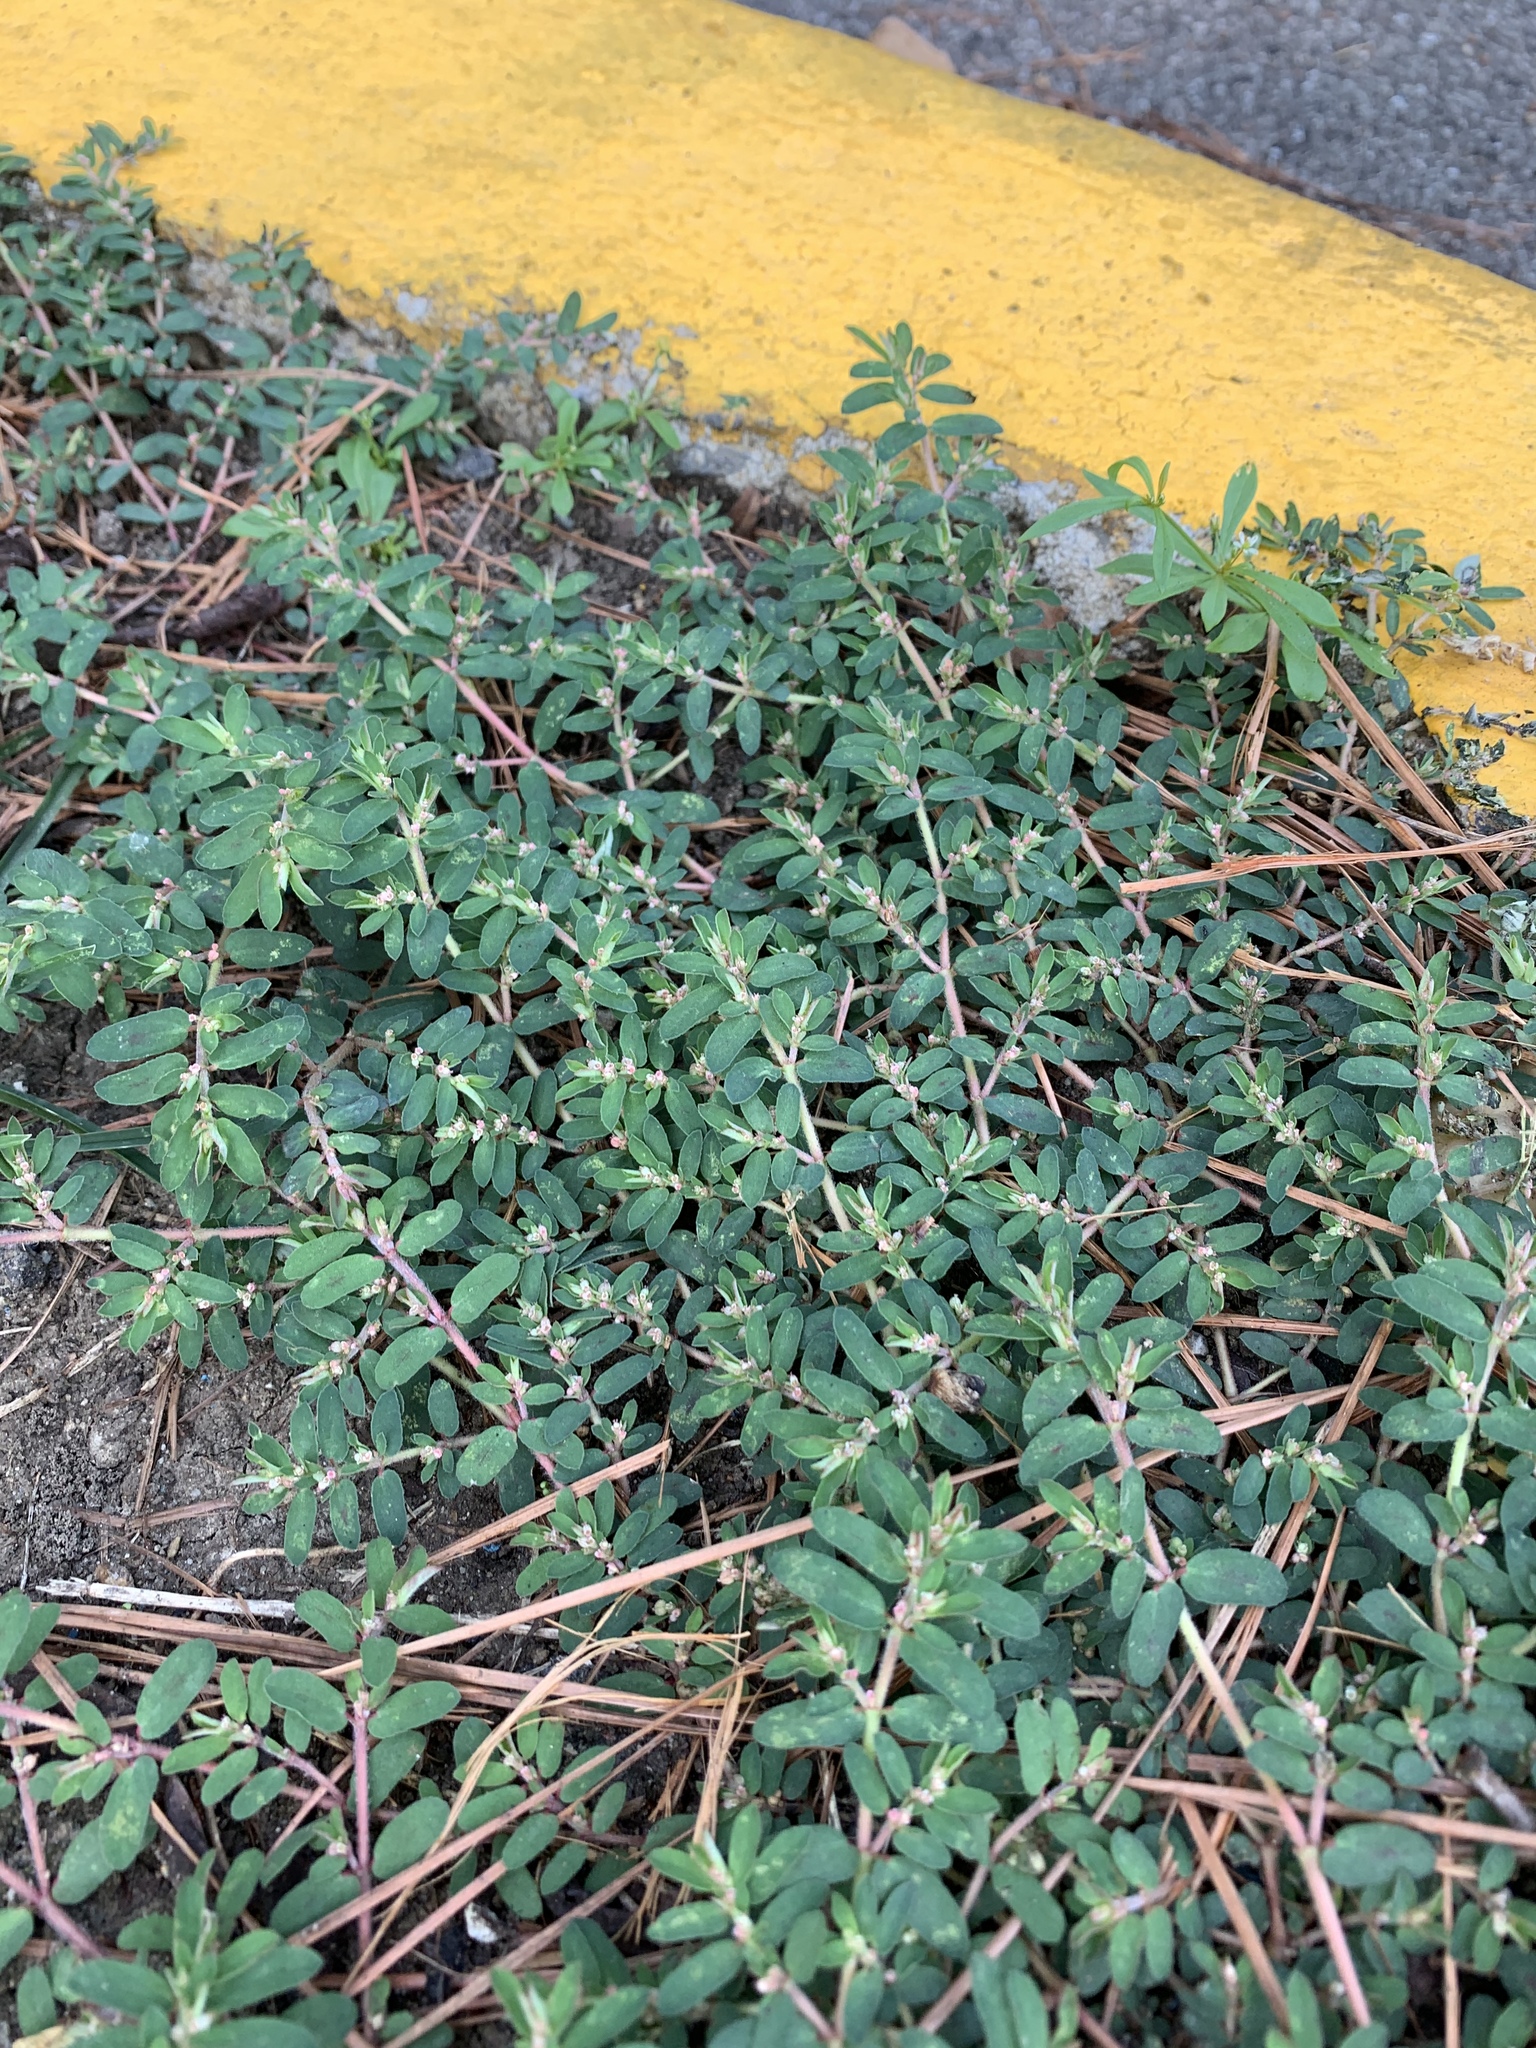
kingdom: Plantae
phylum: Tracheophyta
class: Magnoliopsida
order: Malpighiales
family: Euphorbiaceae
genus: Euphorbia
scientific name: Euphorbia maculata
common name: Spotted spurge
